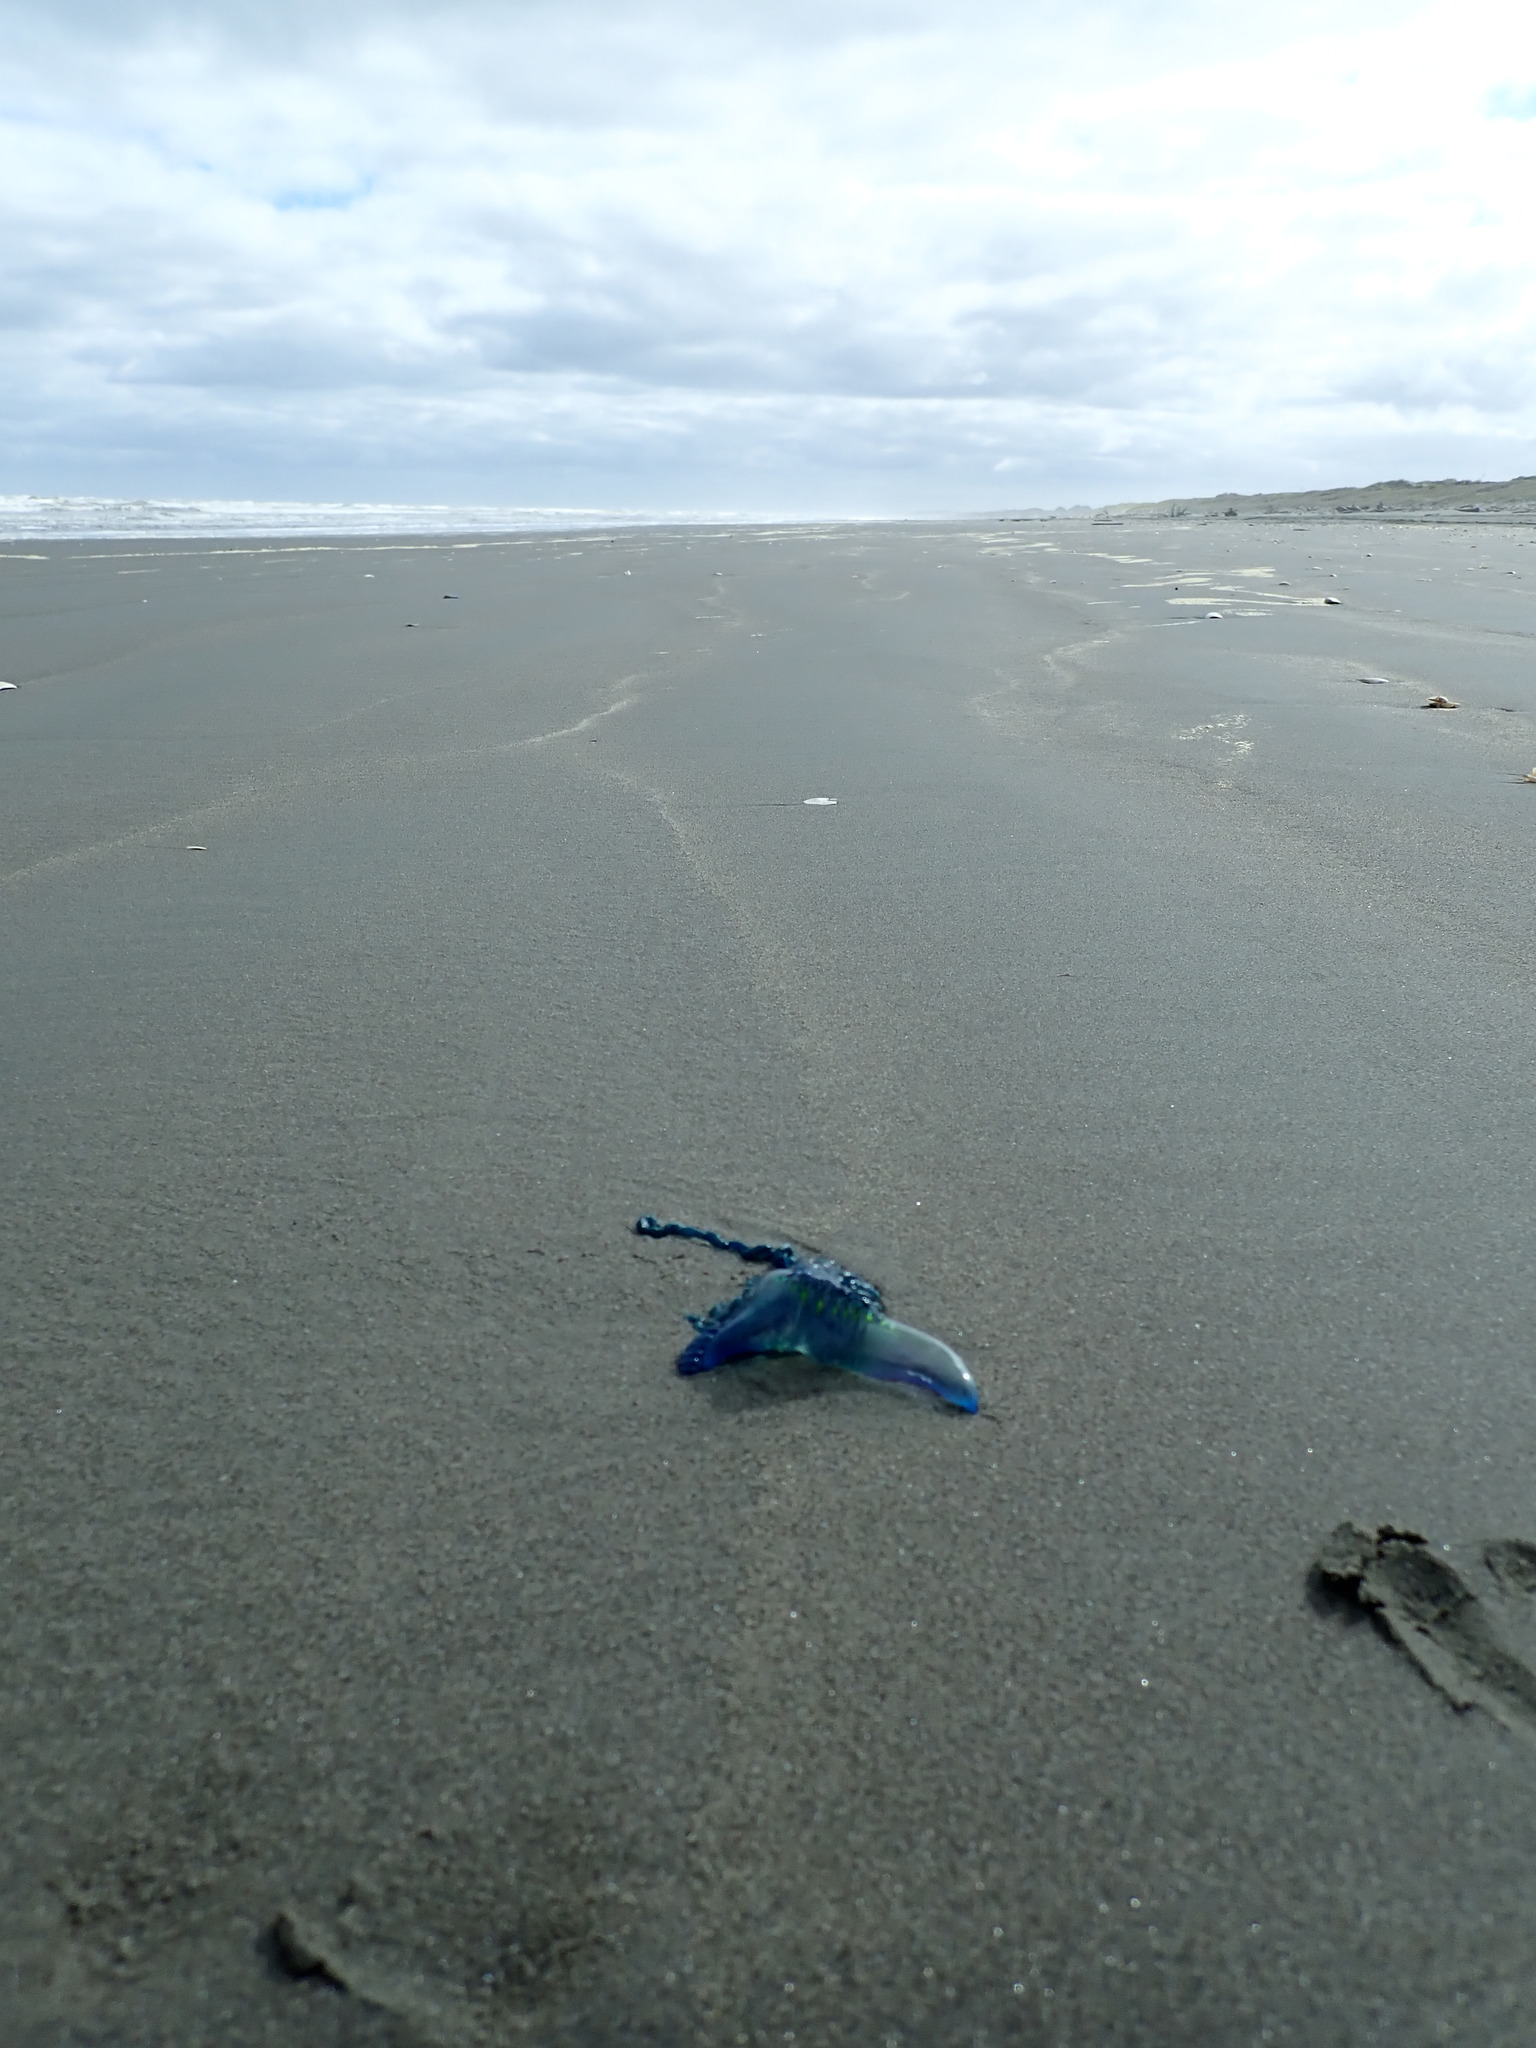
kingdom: Animalia
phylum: Cnidaria
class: Hydrozoa
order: Siphonophorae
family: Physaliidae
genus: Physalia
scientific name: Physalia physalis
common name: Portuguese man-of-war
